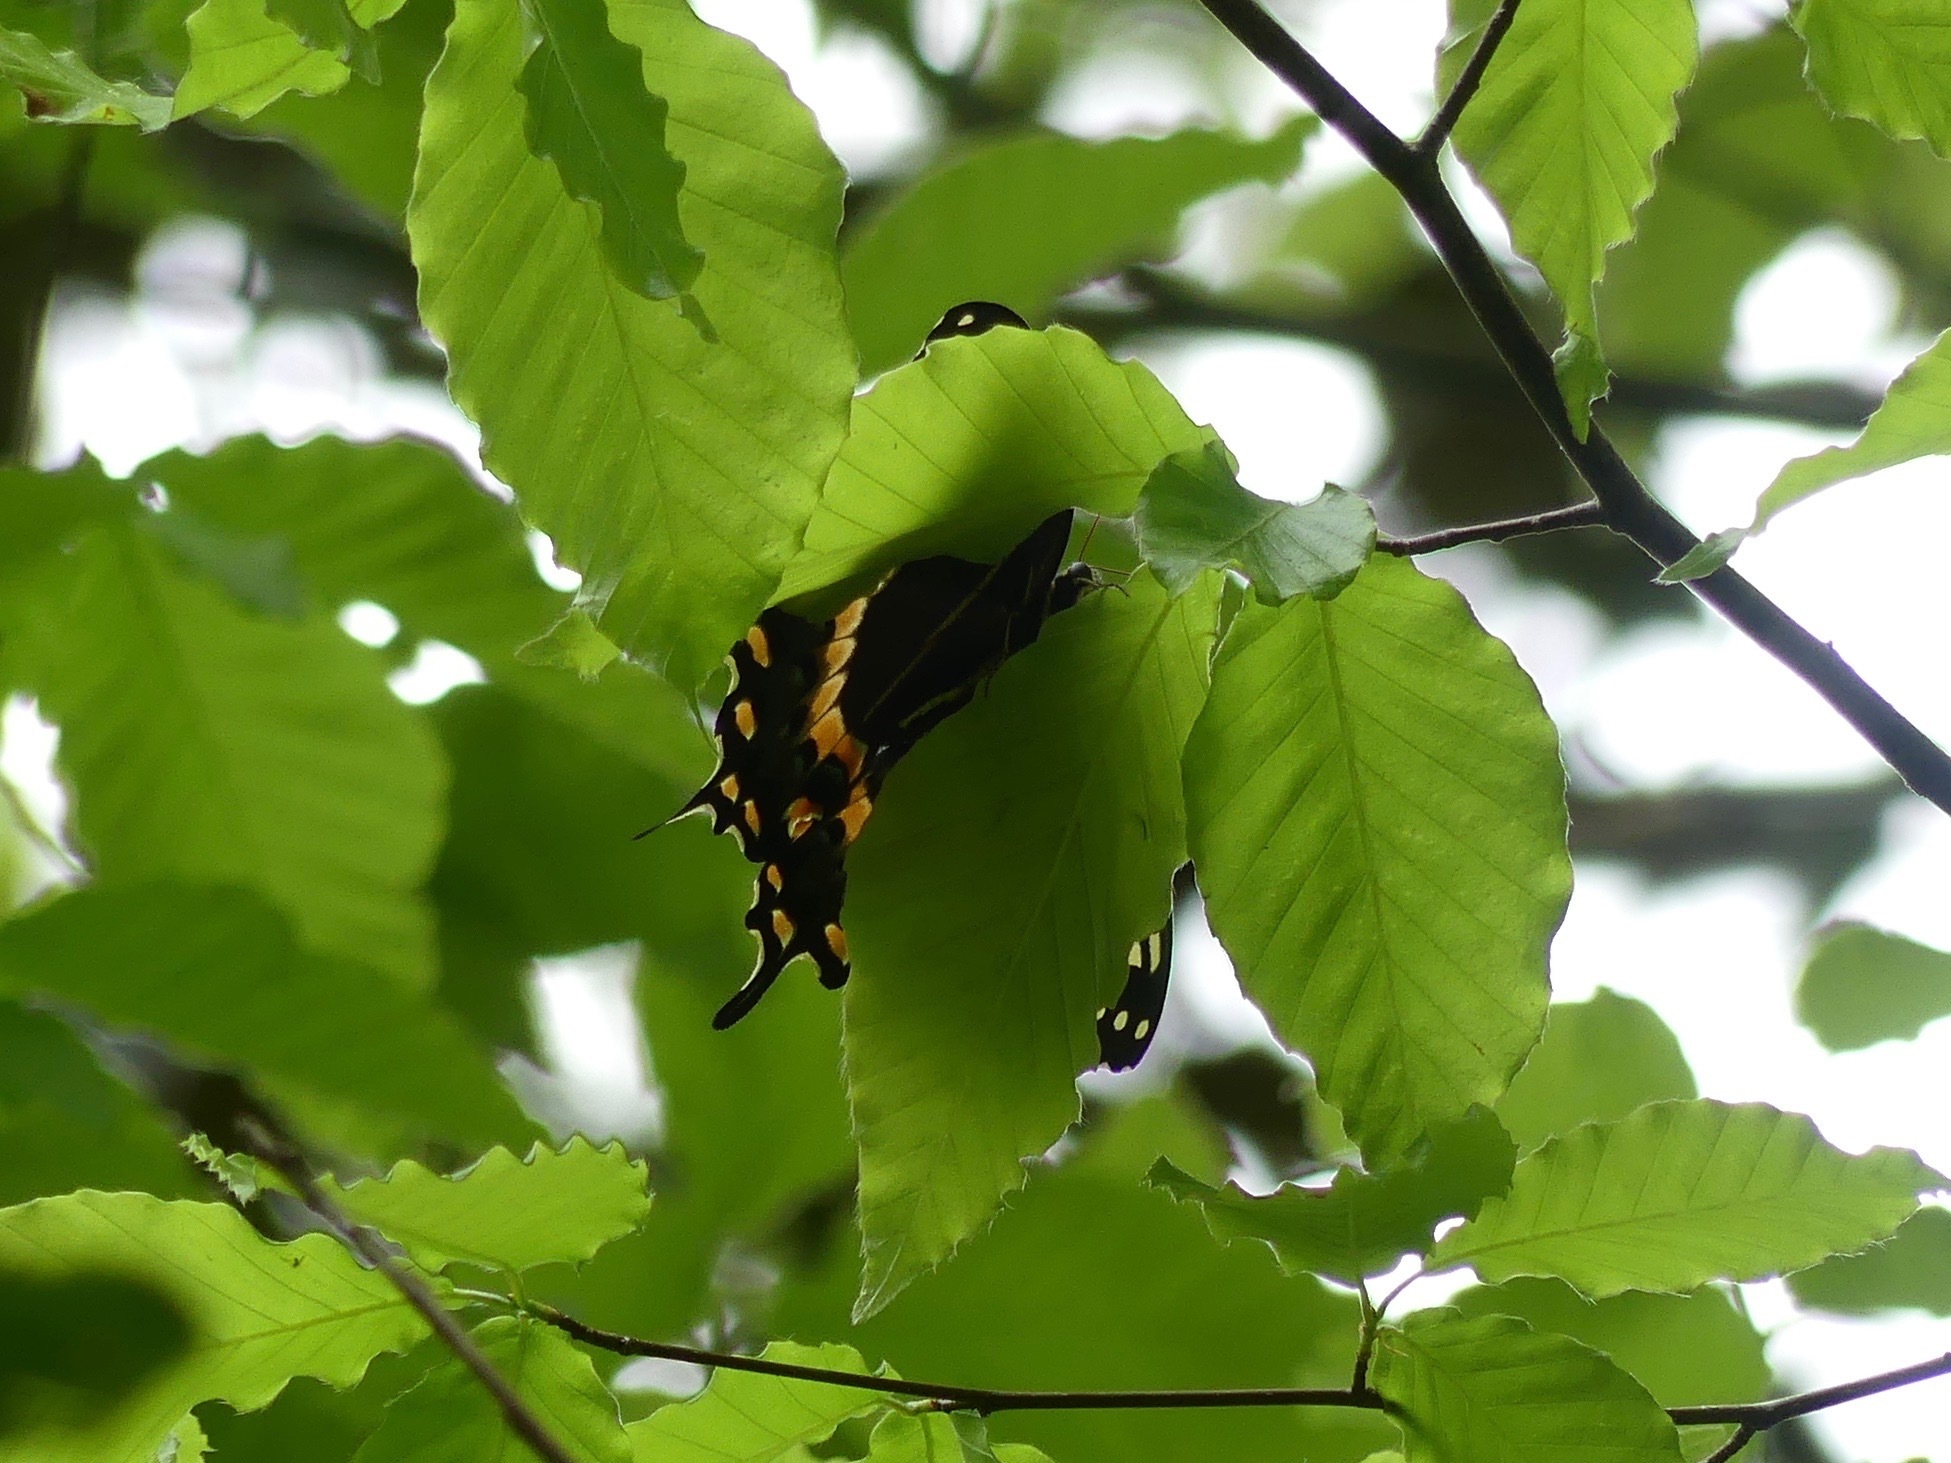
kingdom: Animalia
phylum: Arthropoda
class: Insecta
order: Lepidoptera
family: Papilionidae
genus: Papilio
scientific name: Papilio palamedes
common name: Palamedes swallowtail
